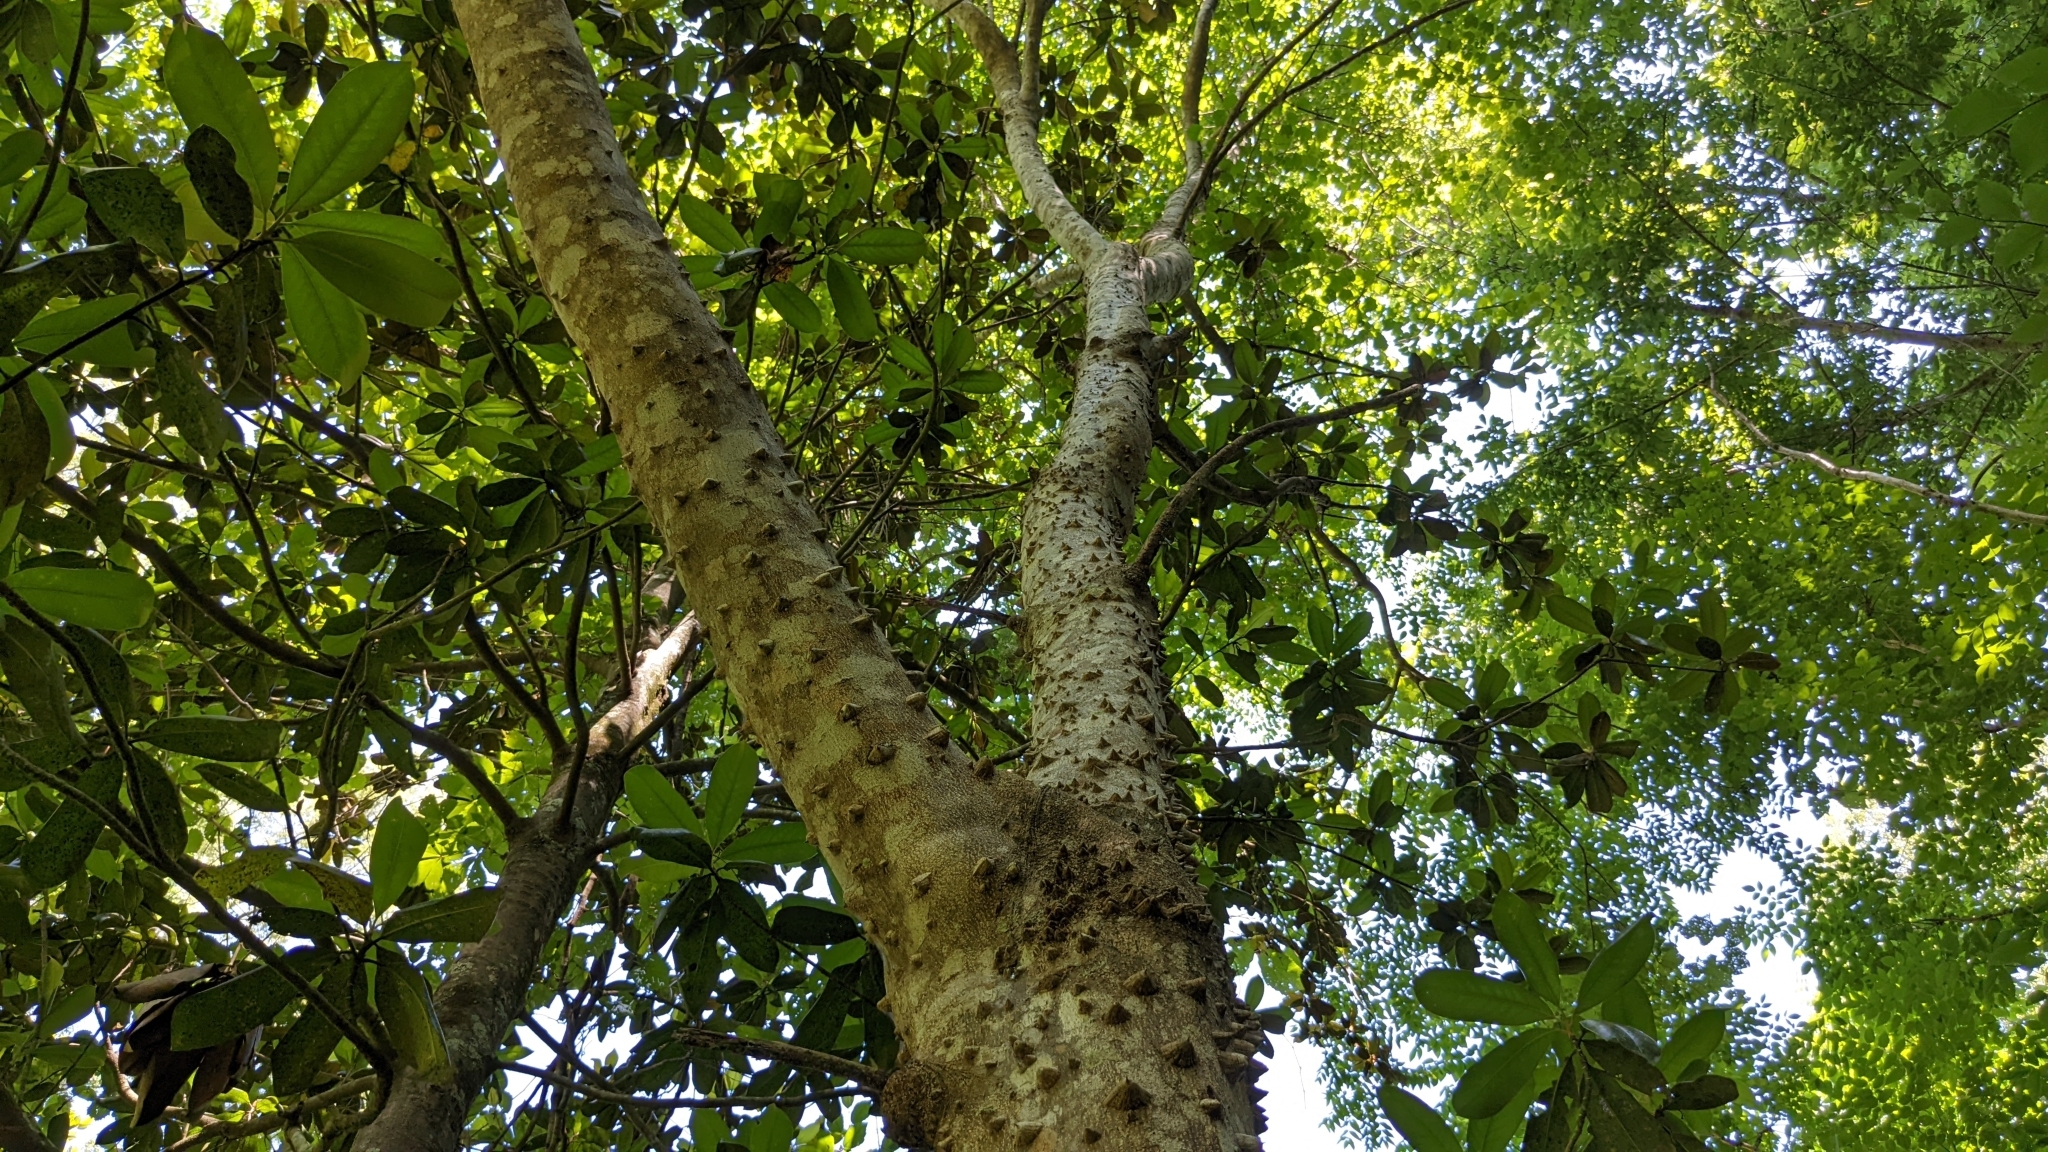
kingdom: Plantae
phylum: Tracheophyta
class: Magnoliopsida
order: Sapindales
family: Rutaceae
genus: Zanthoxylum
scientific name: Zanthoxylum clava-herculis
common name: Hercules'-club
